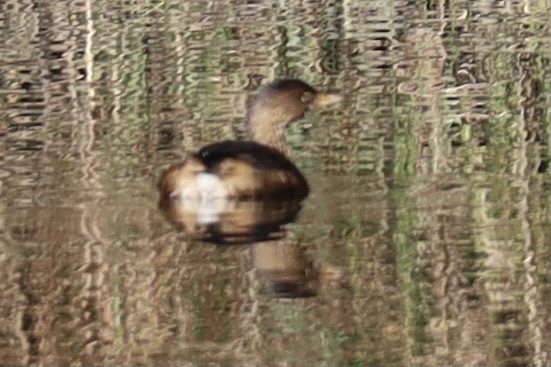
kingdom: Animalia
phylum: Chordata
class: Aves
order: Podicipediformes
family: Podicipedidae
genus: Podilymbus
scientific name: Podilymbus podiceps
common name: Pied-billed grebe
